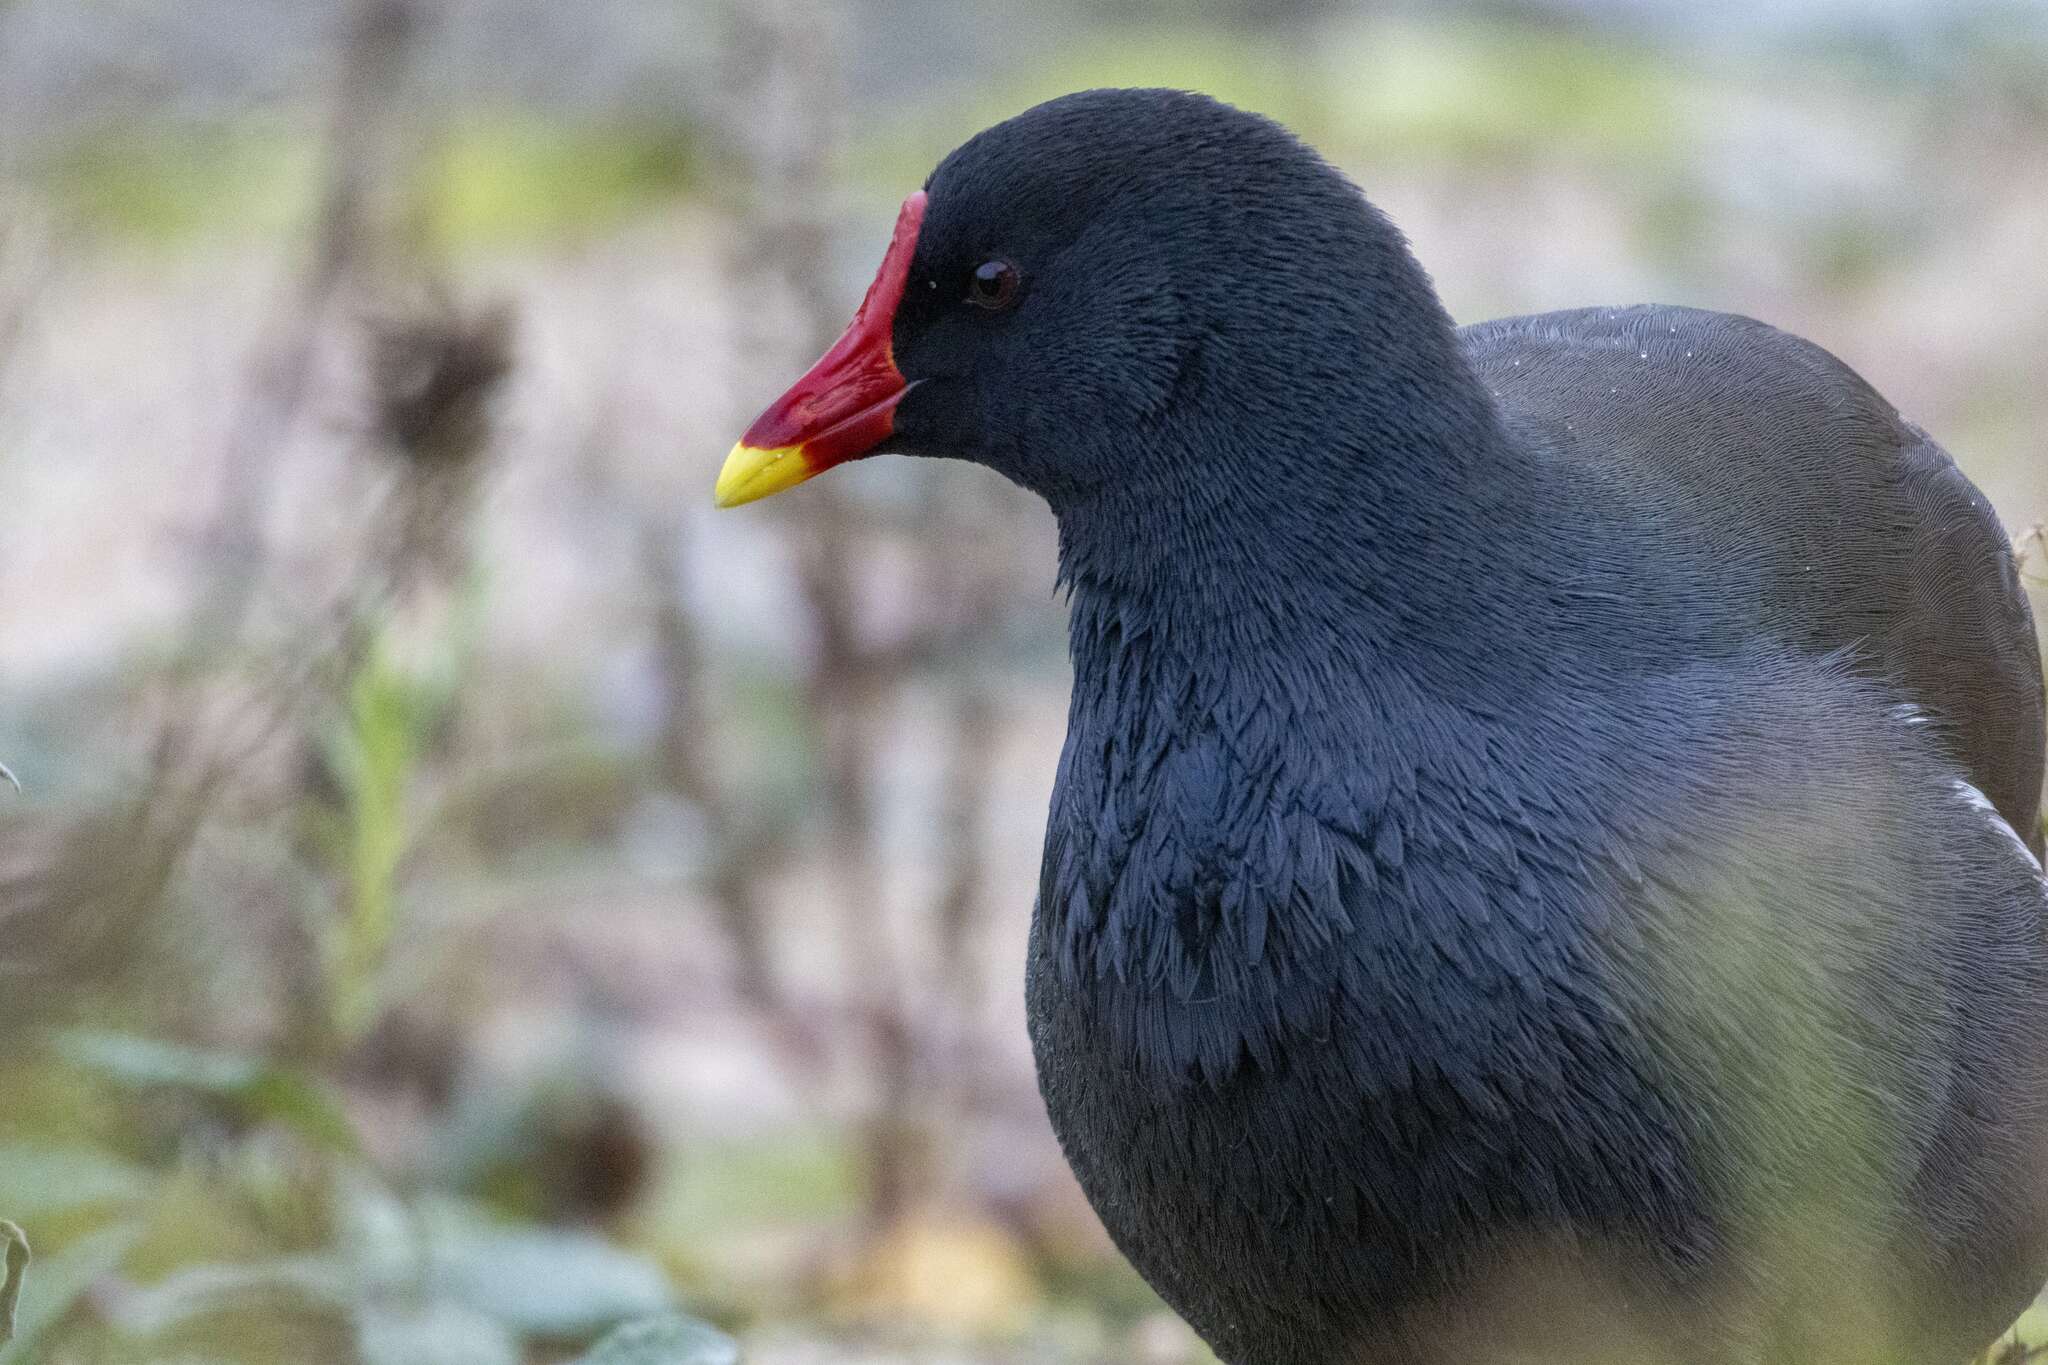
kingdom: Animalia
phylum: Chordata
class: Aves
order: Gruiformes
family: Rallidae
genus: Gallinula
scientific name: Gallinula chloropus
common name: Common moorhen
